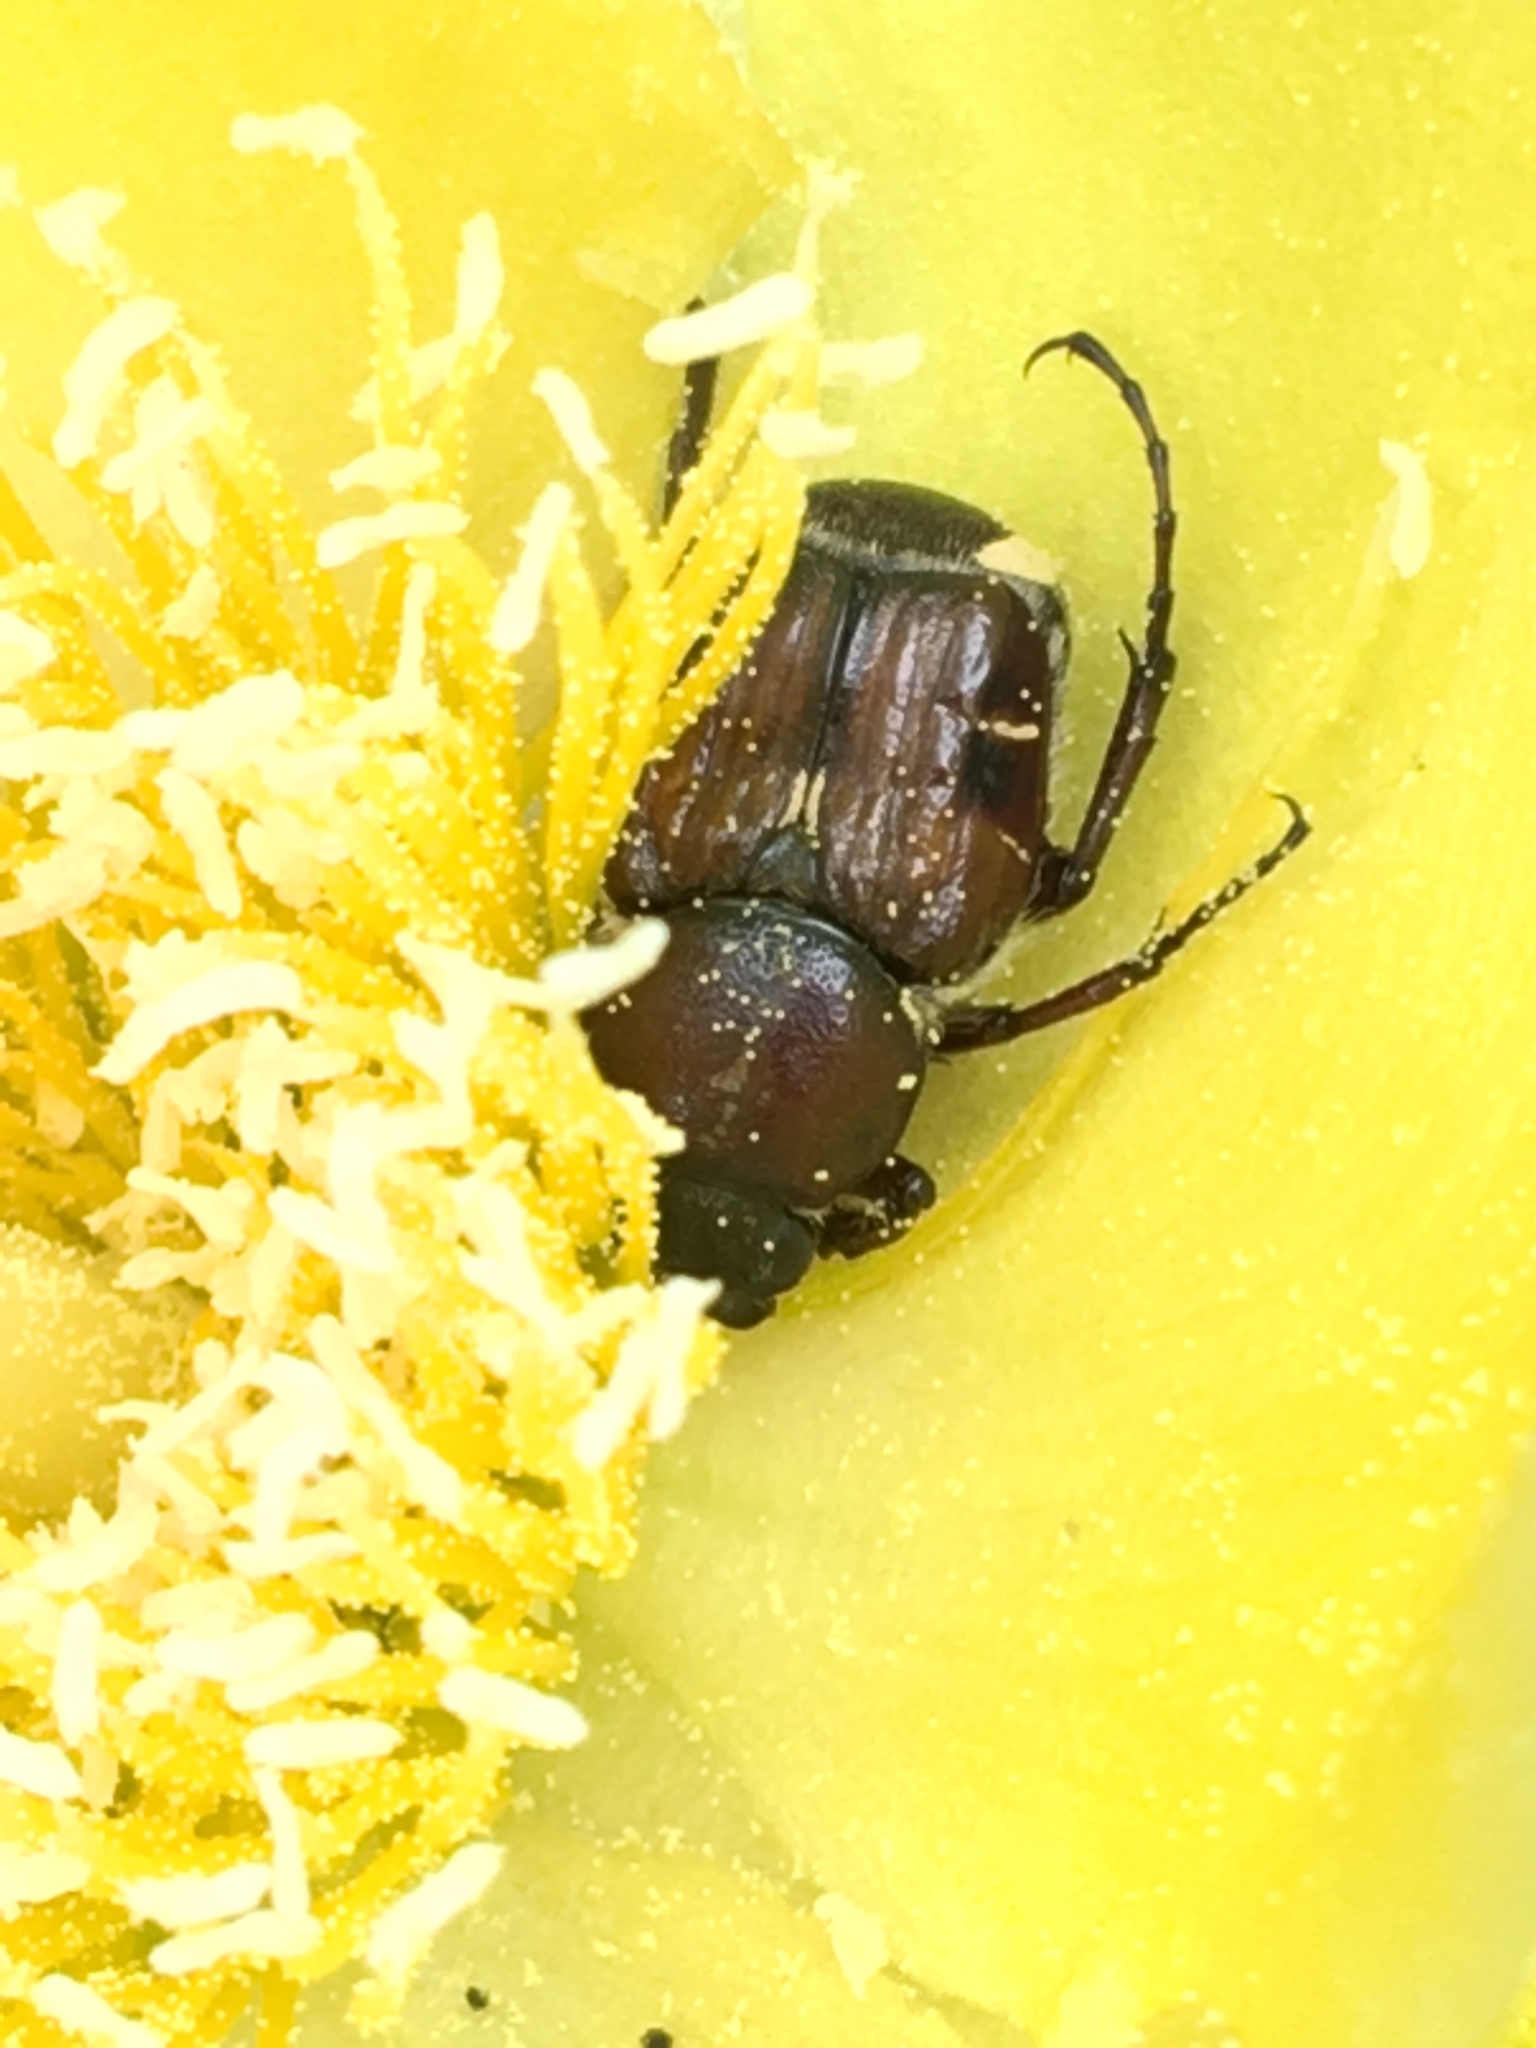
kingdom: Animalia
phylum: Arthropoda
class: Insecta
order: Coleoptera
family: Scarabaeidae
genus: Euphoria
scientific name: Euphoria sepulcralis
